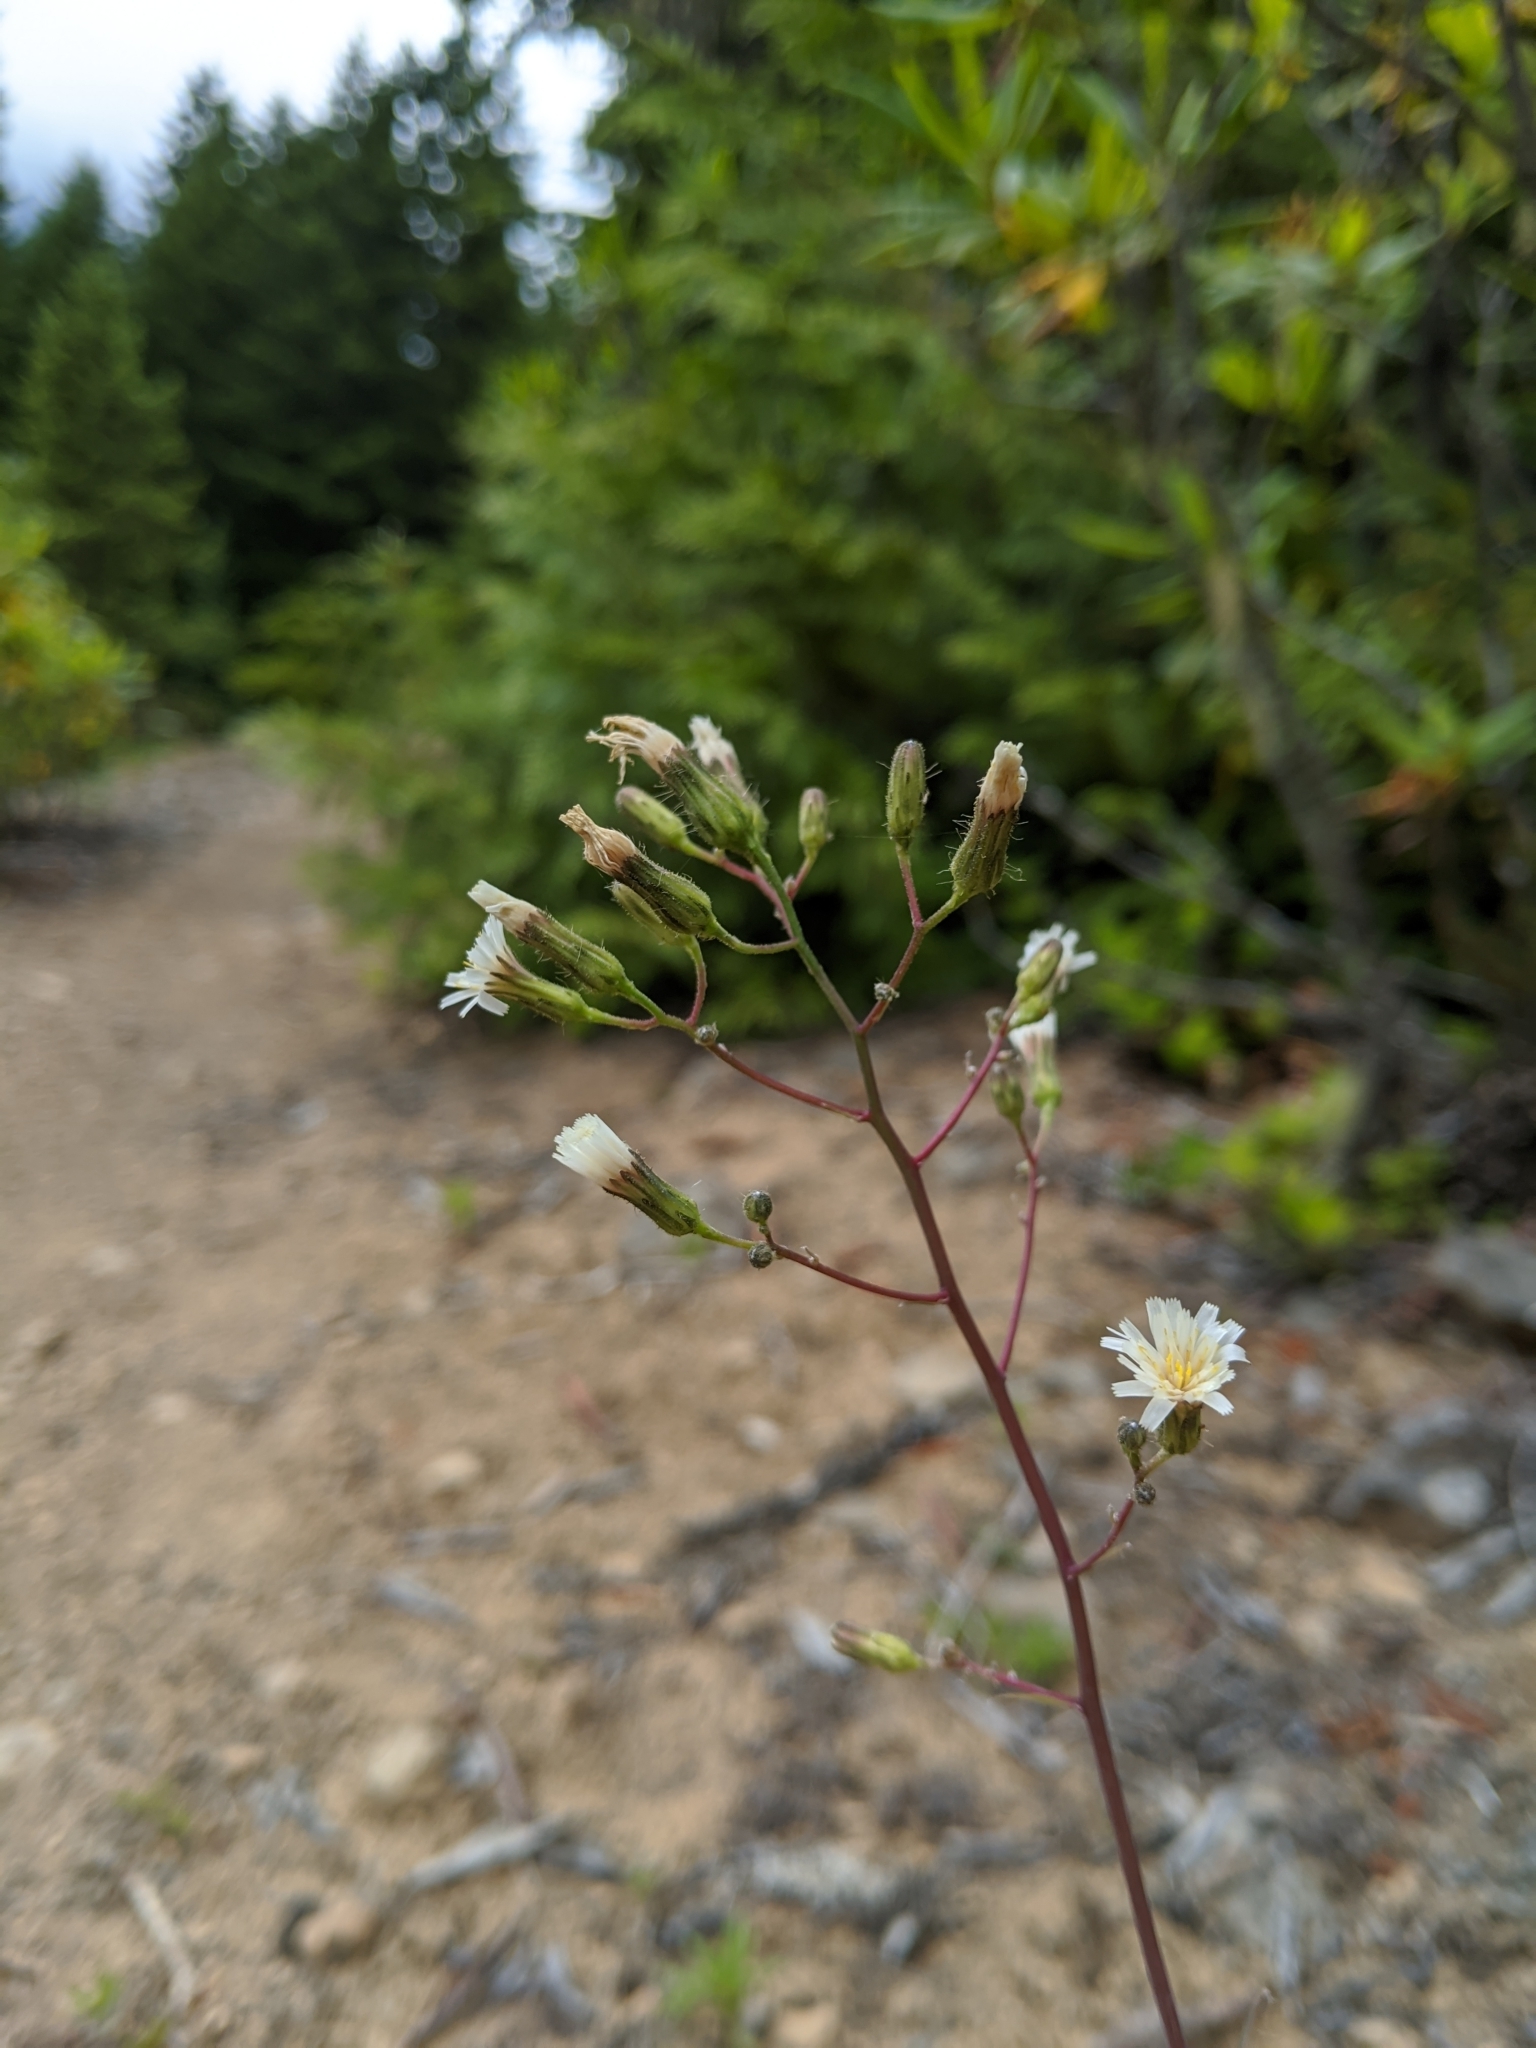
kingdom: Plantae
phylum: Tracheophyta
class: Magnoliopsida
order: Asterales
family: Asteraceae
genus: Hieracium
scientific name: Hieracium albiflorum
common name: White hawkweed
